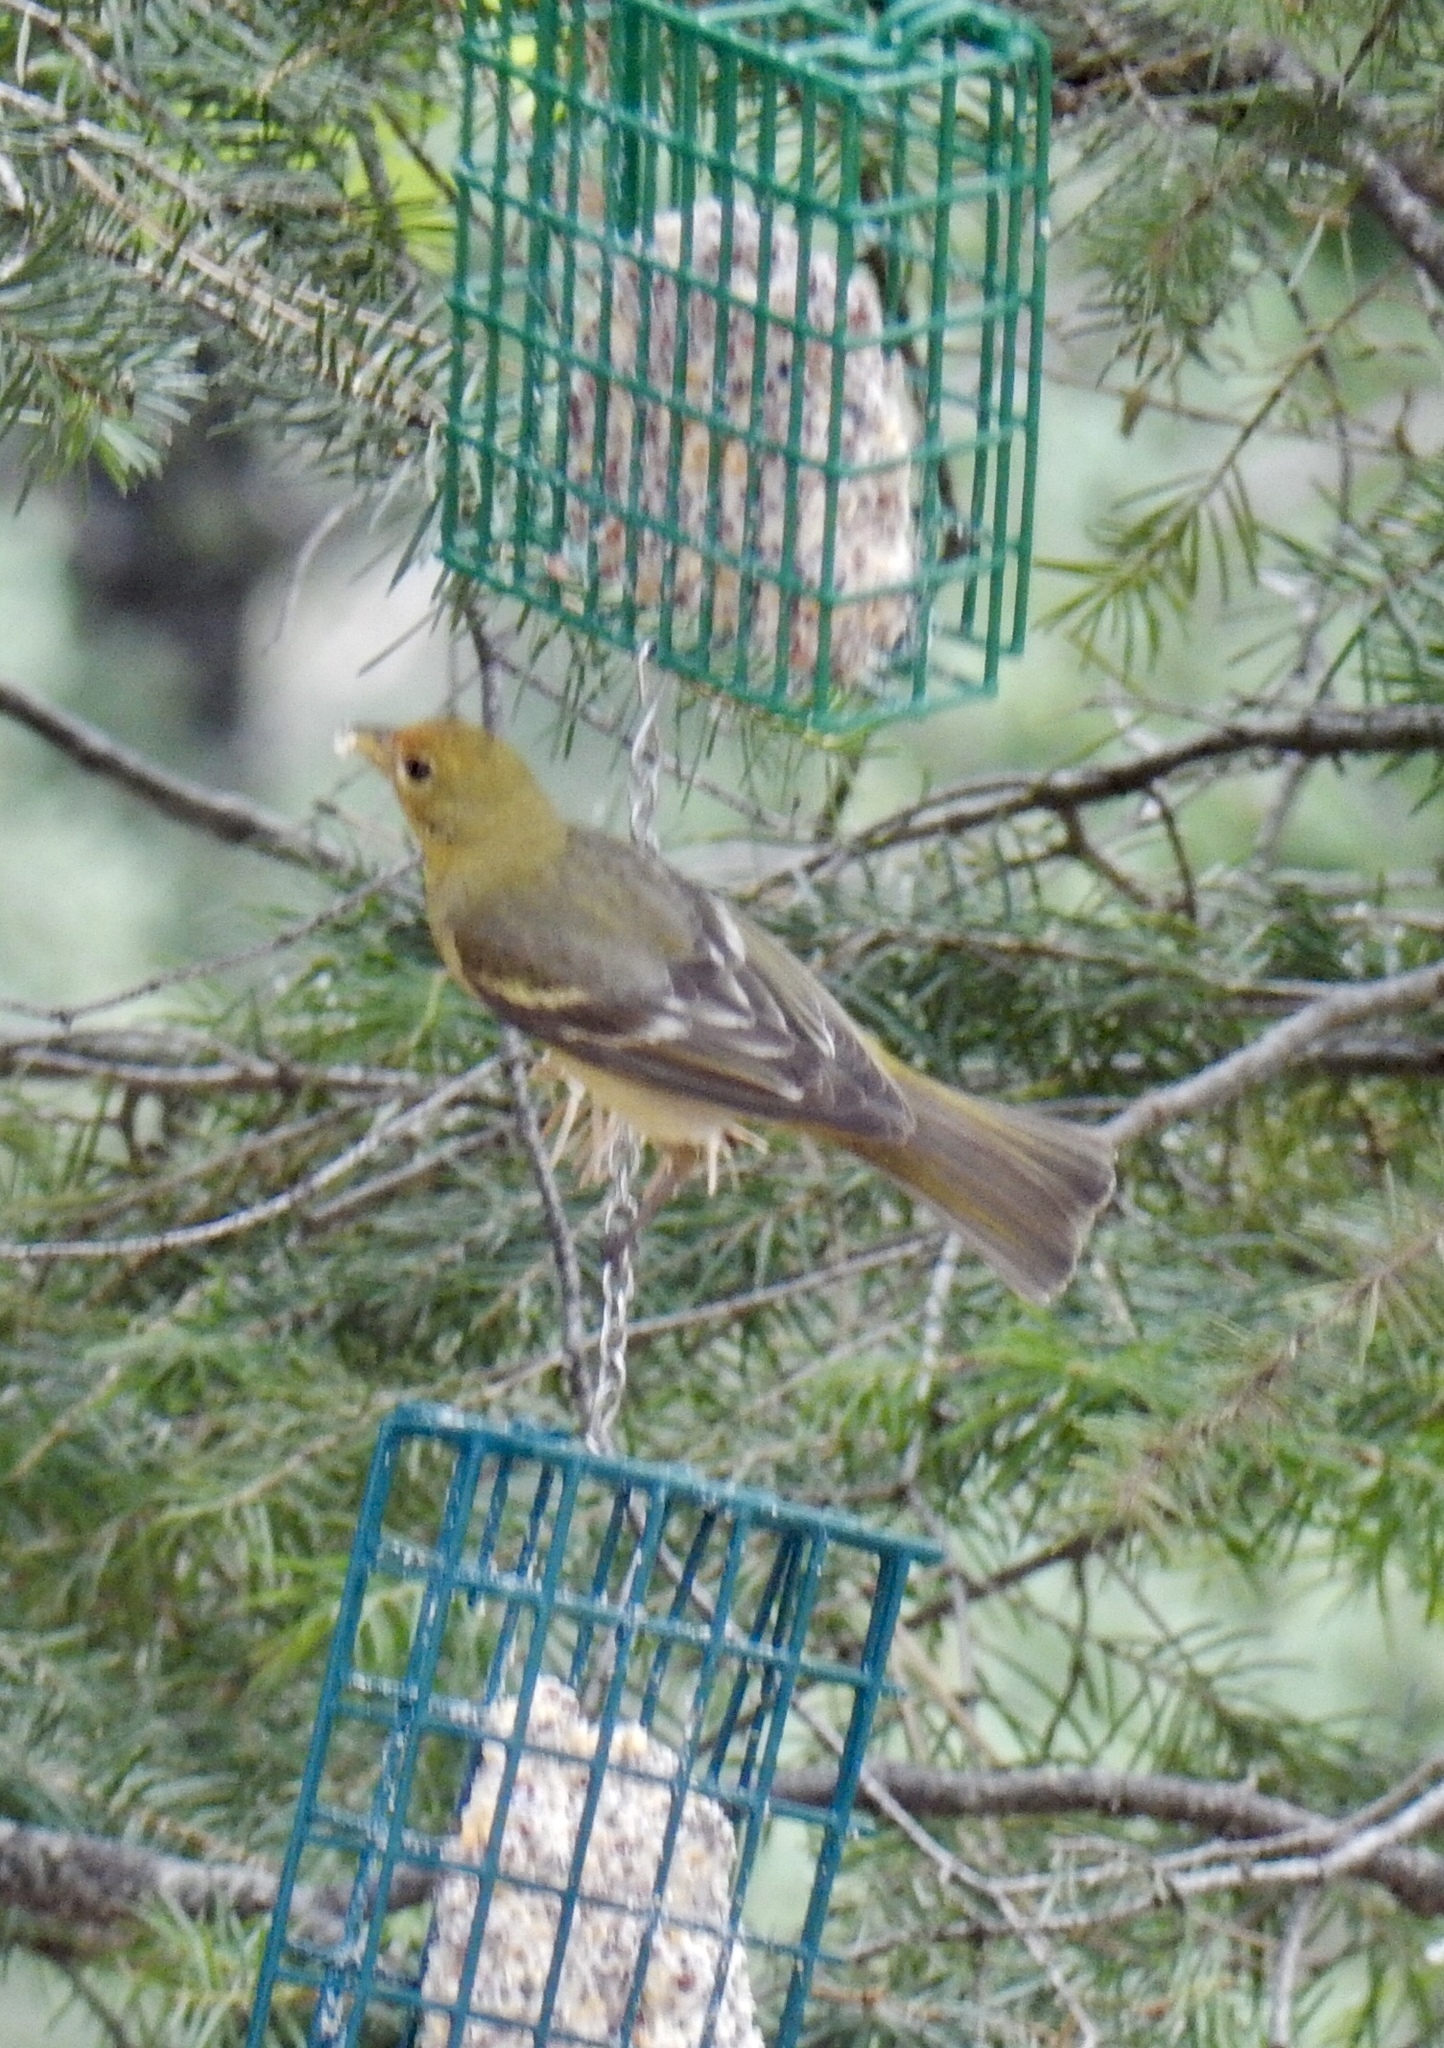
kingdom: Animalia
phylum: Chordata
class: Aves
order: Passeriformes
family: Cardinalidae
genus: Piranga
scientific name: Piranga ludoviciana
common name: Western tanager
